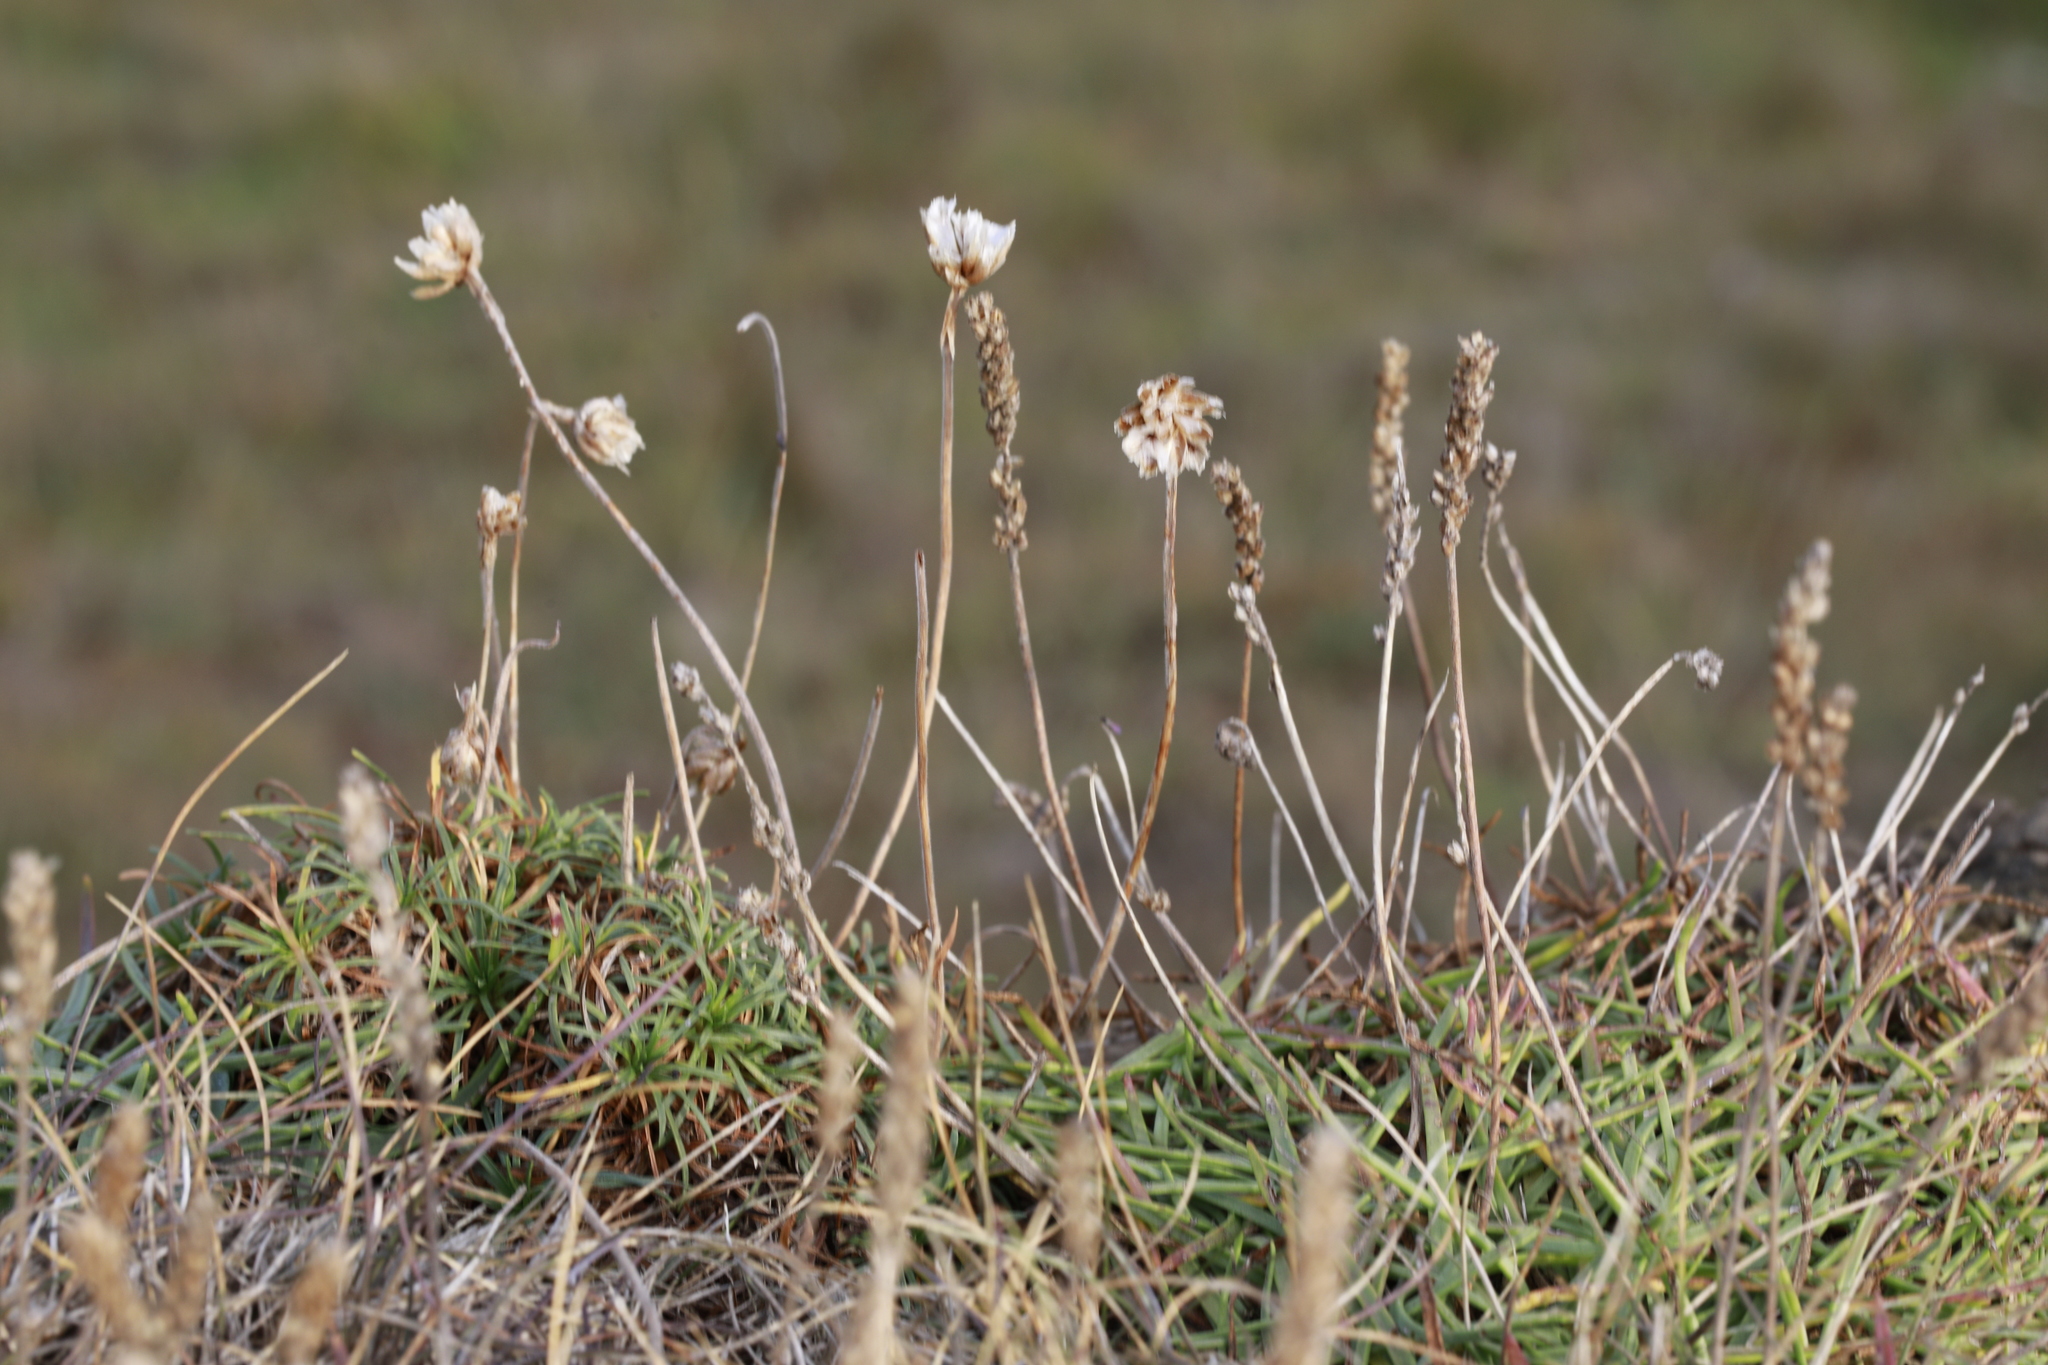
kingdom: Plantae
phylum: Tracheophyta
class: Magnoliopsida
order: Caryophyllales
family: Plumbaginaceae
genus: Armeria
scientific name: Armeria maritima
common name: Thrift
